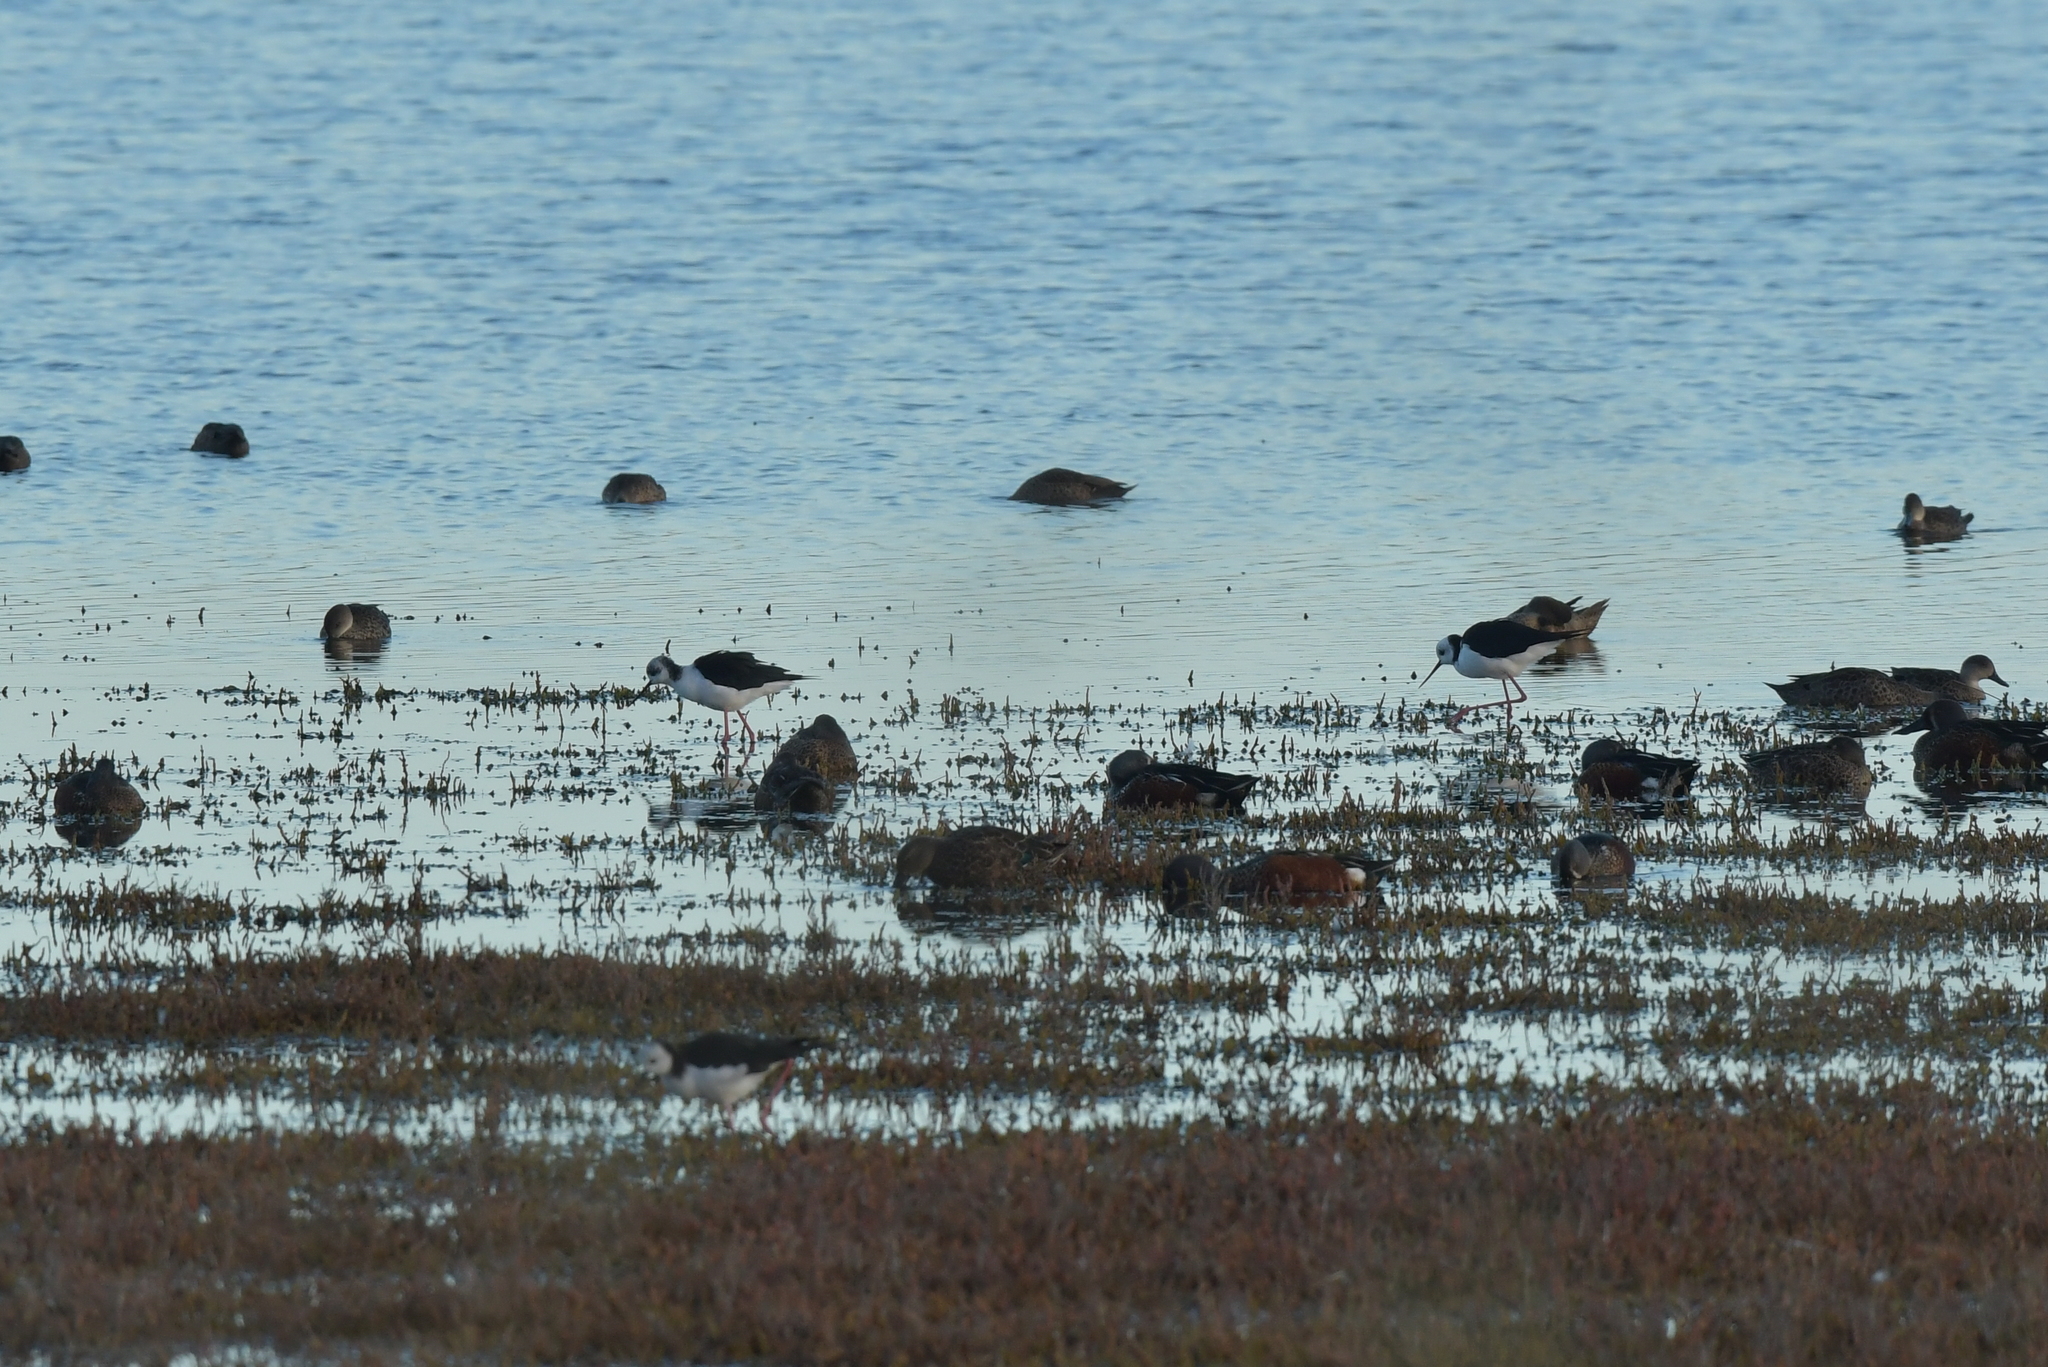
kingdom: Animalia
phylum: Chordata
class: Aves
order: Charadriiformes
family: Recurvirostridae
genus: Himantopus
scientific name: Himantopus leucocephalus
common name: White-headed stilt
